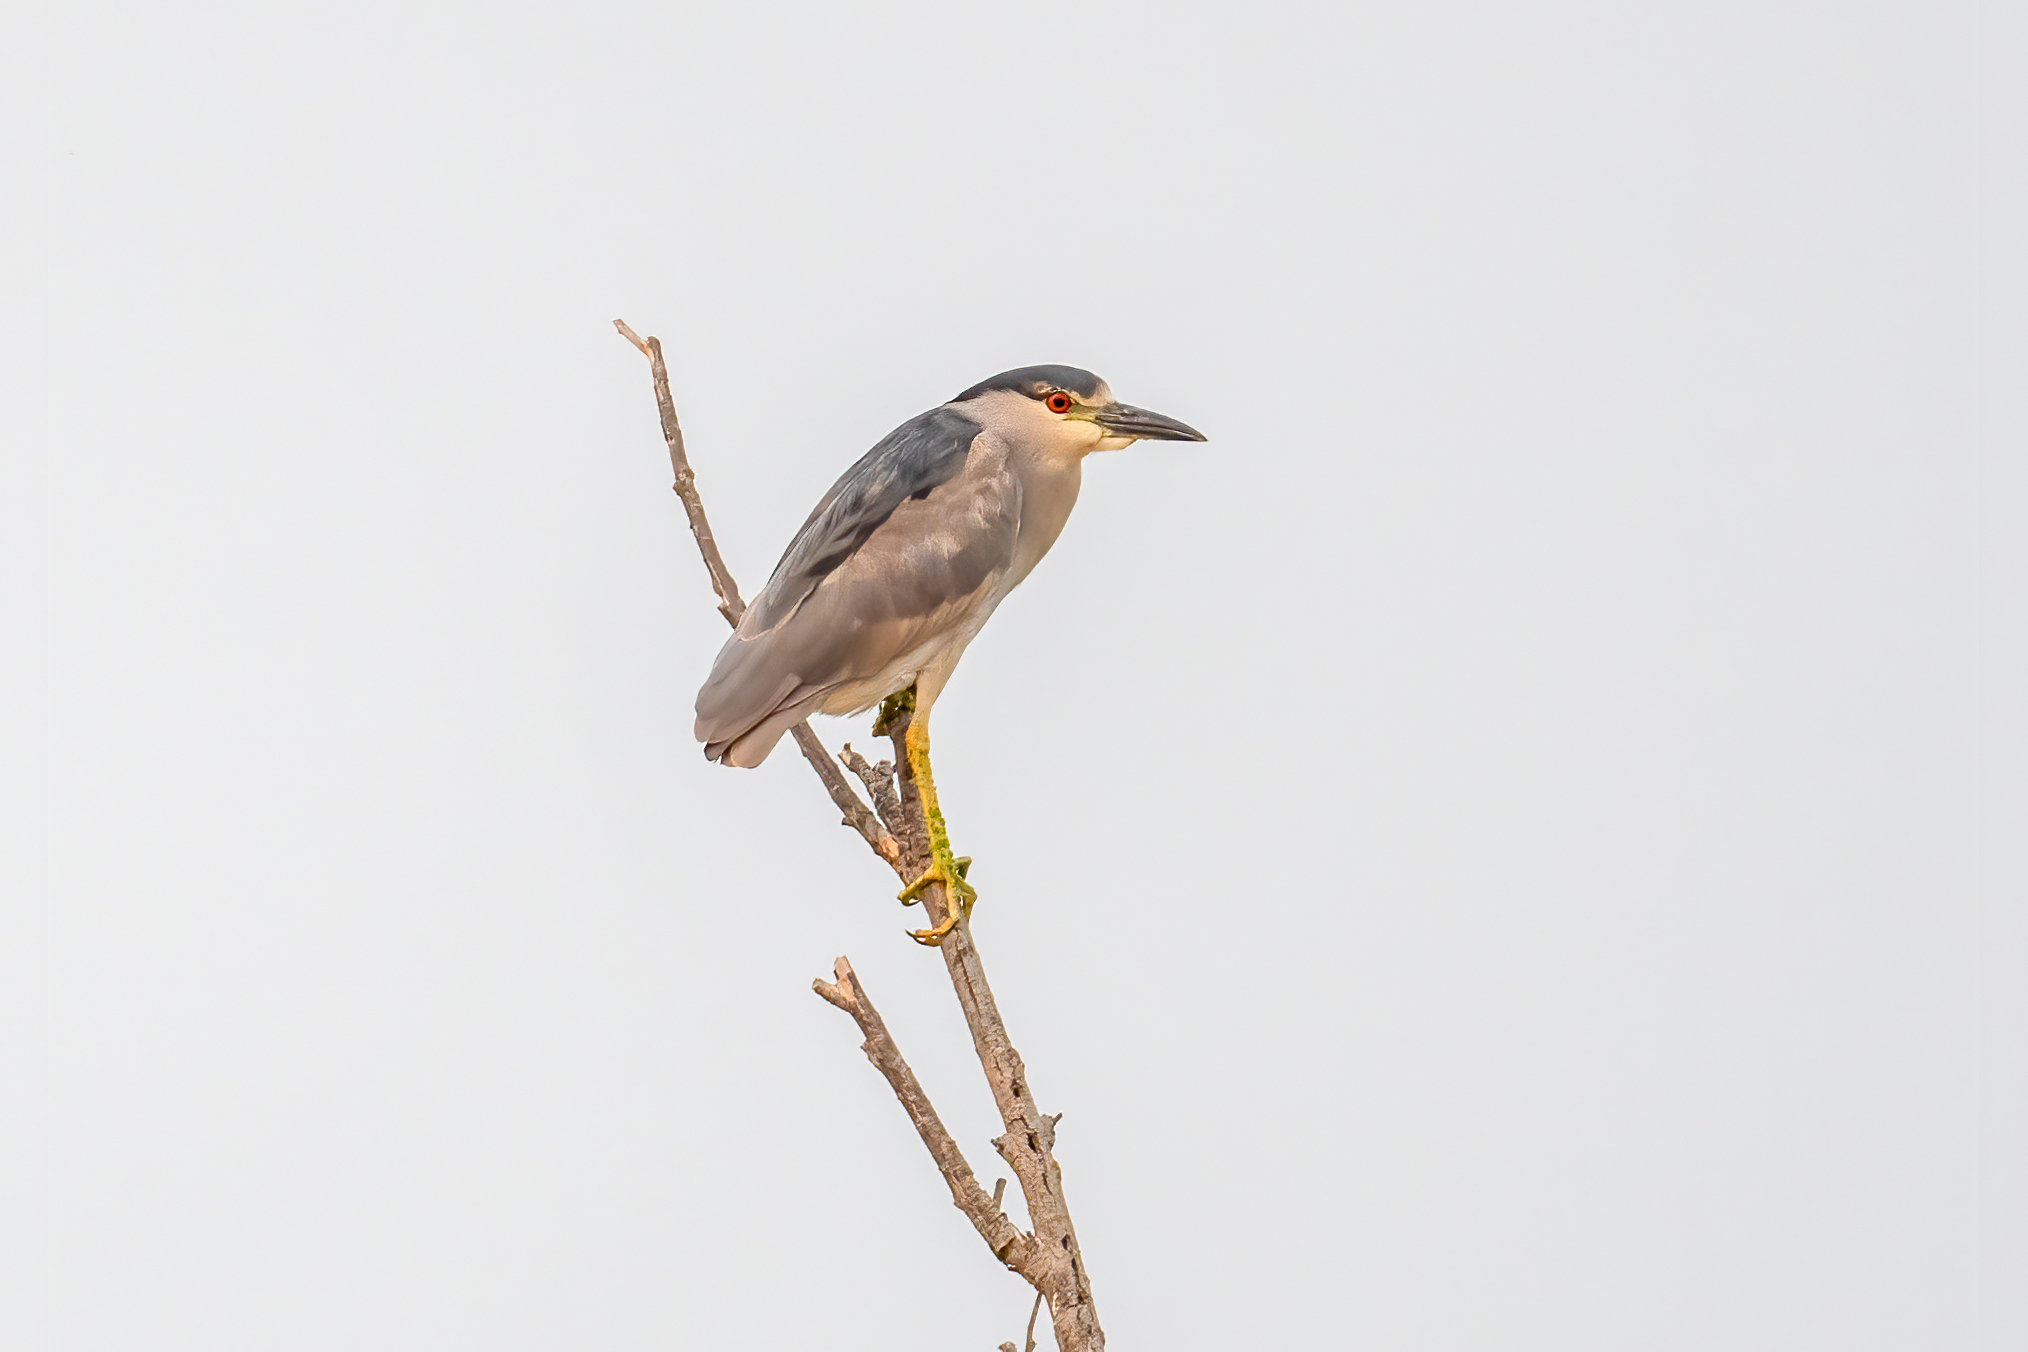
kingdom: Animalia
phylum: Chordata
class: Aves
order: Pelecaniformes
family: Ardeidae
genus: Nycticorax
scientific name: Nycticorax nycticorax
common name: Black-crowned night heron
